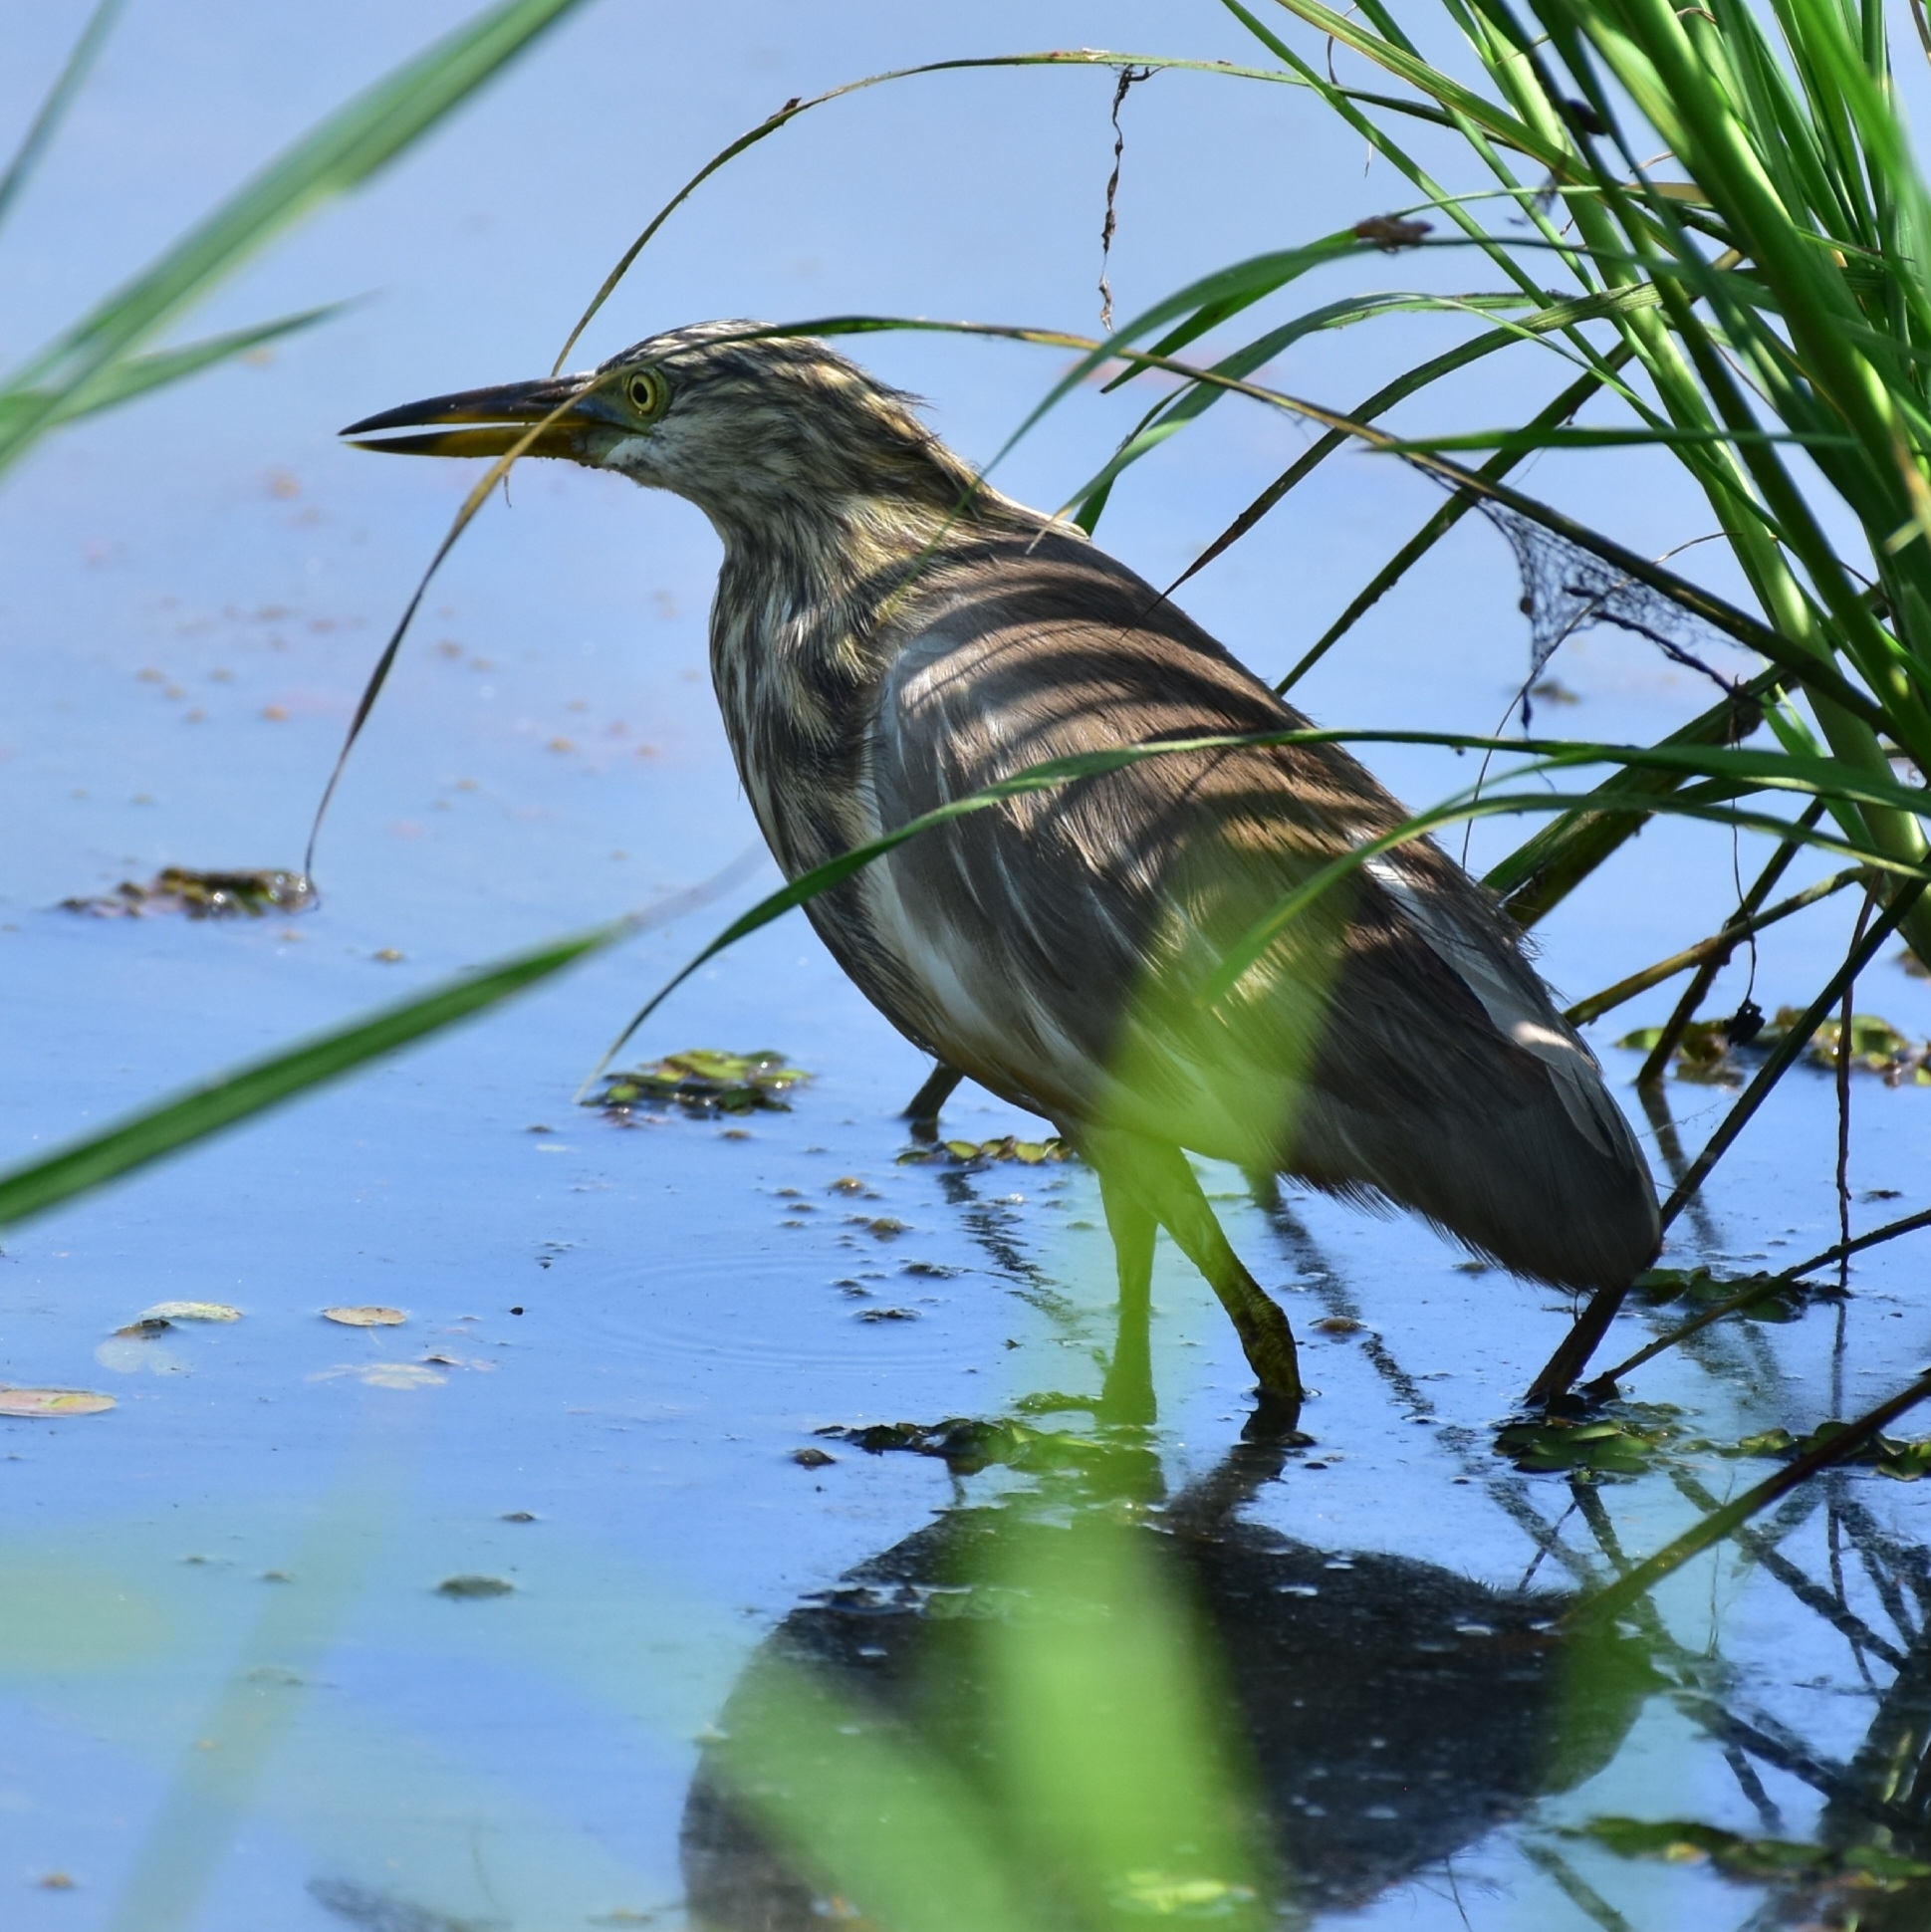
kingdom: Animalia
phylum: Chordata
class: Aves
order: Pelecaniformes
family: Ardeidae
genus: Ardeola
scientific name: Ardeola grayii
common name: Indian pond heron
